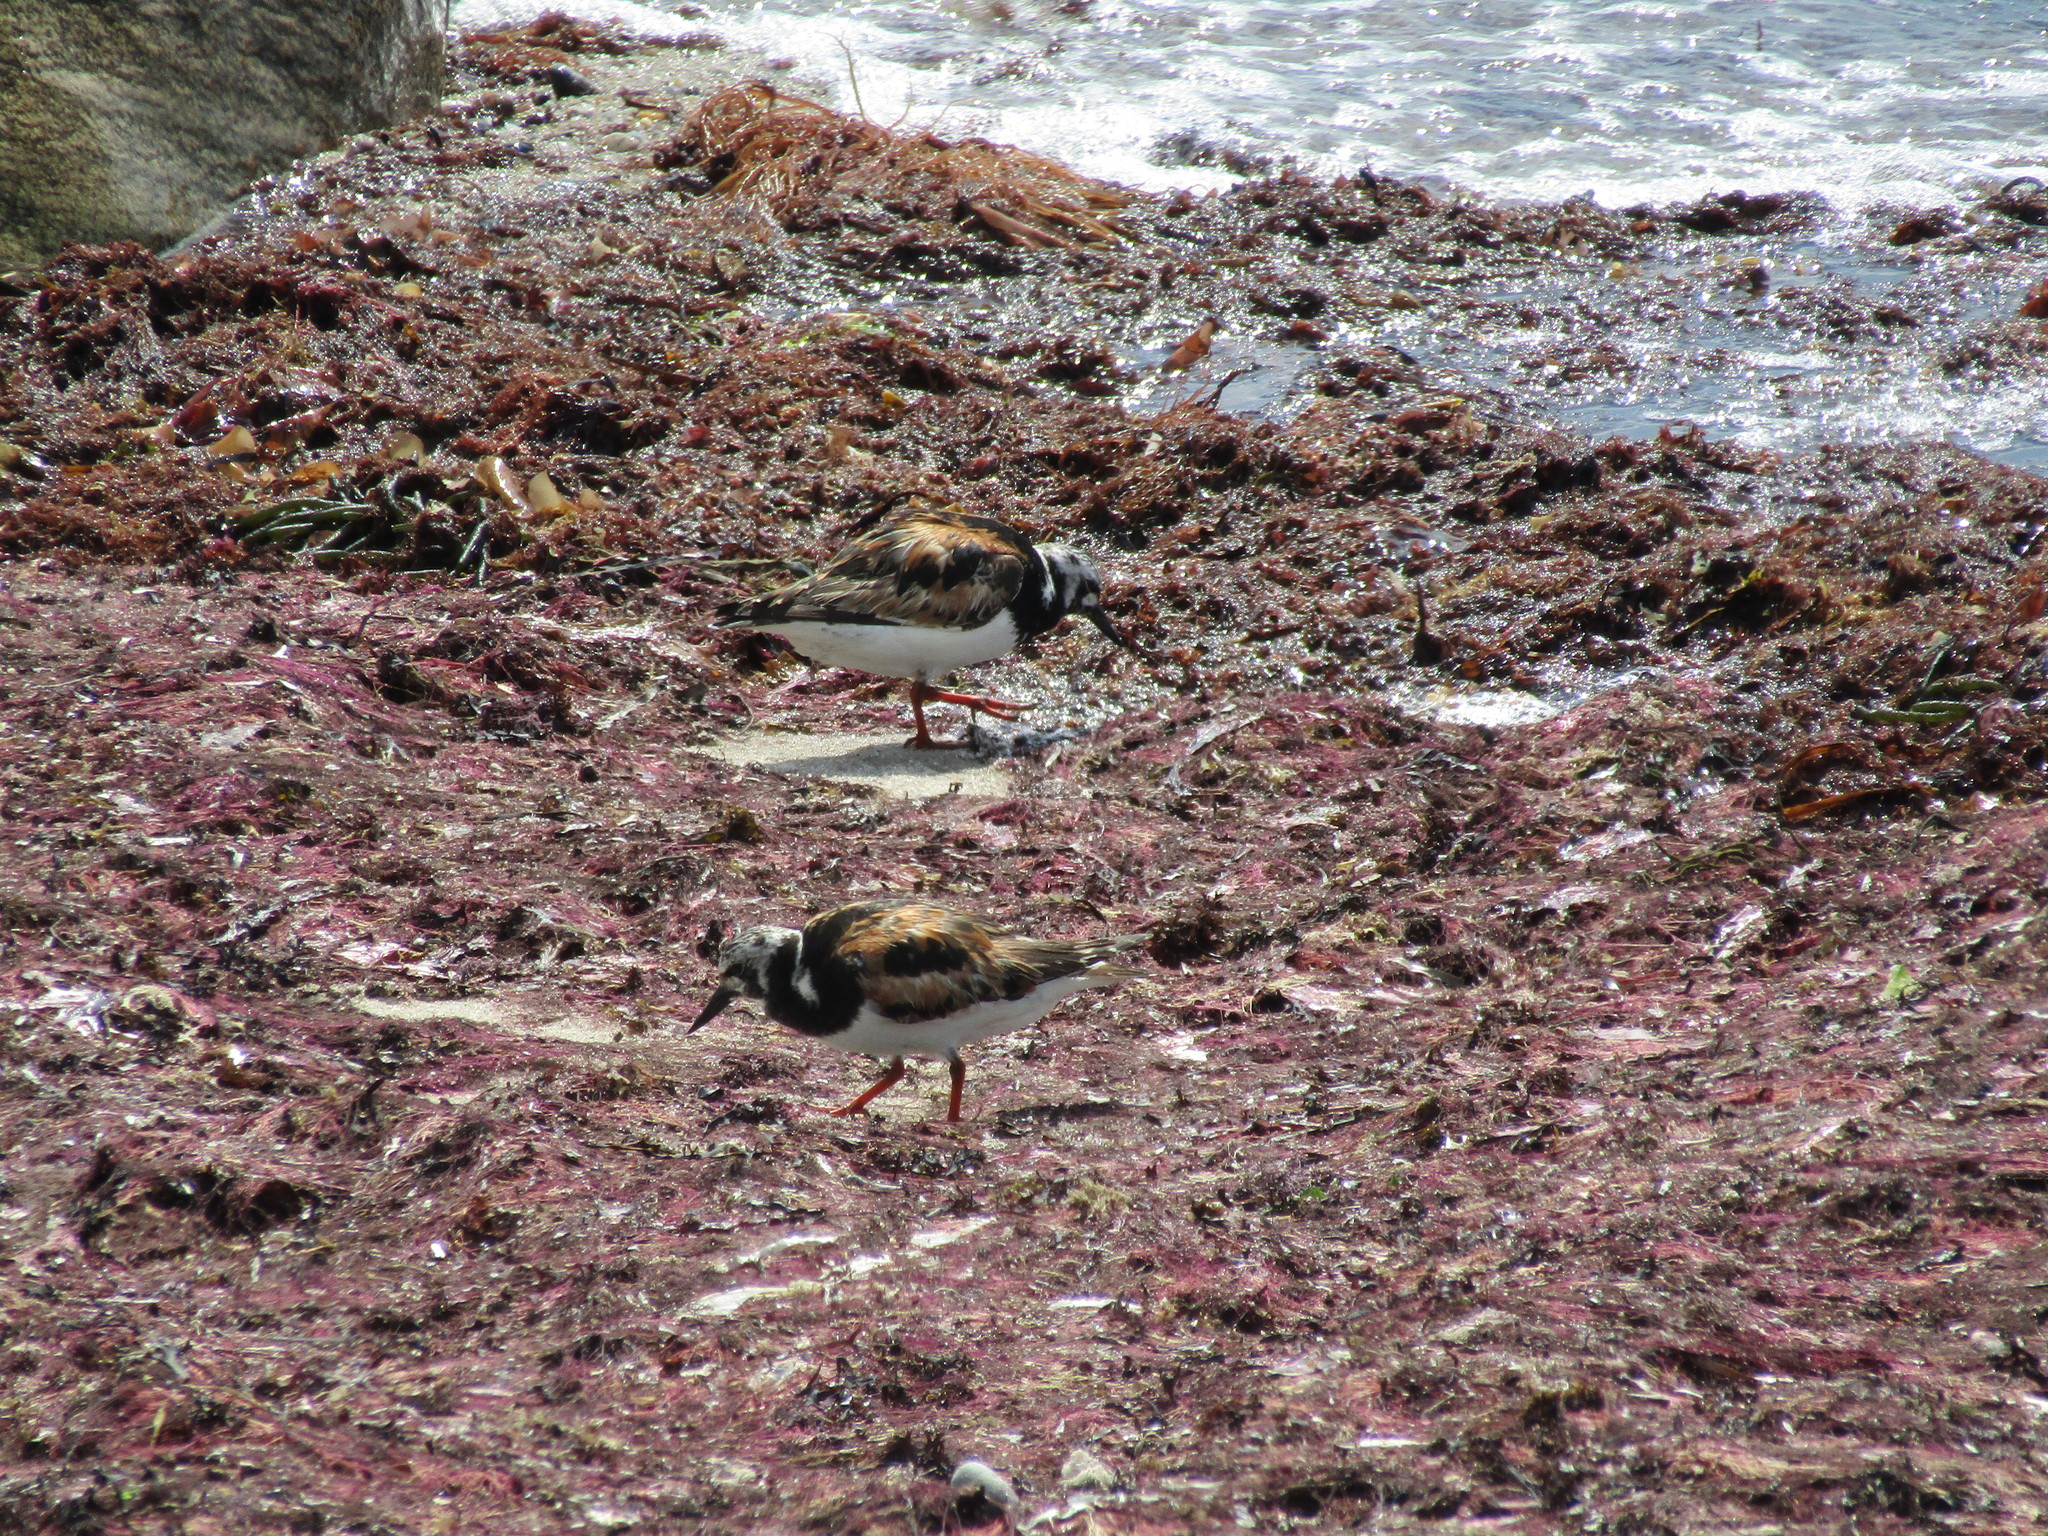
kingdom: Animalia
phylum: Chordata
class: Aves
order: Charadriiformes
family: Scolopacidae
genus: Arenaria
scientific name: Arenaria interpres
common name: Ruddy turnstone
